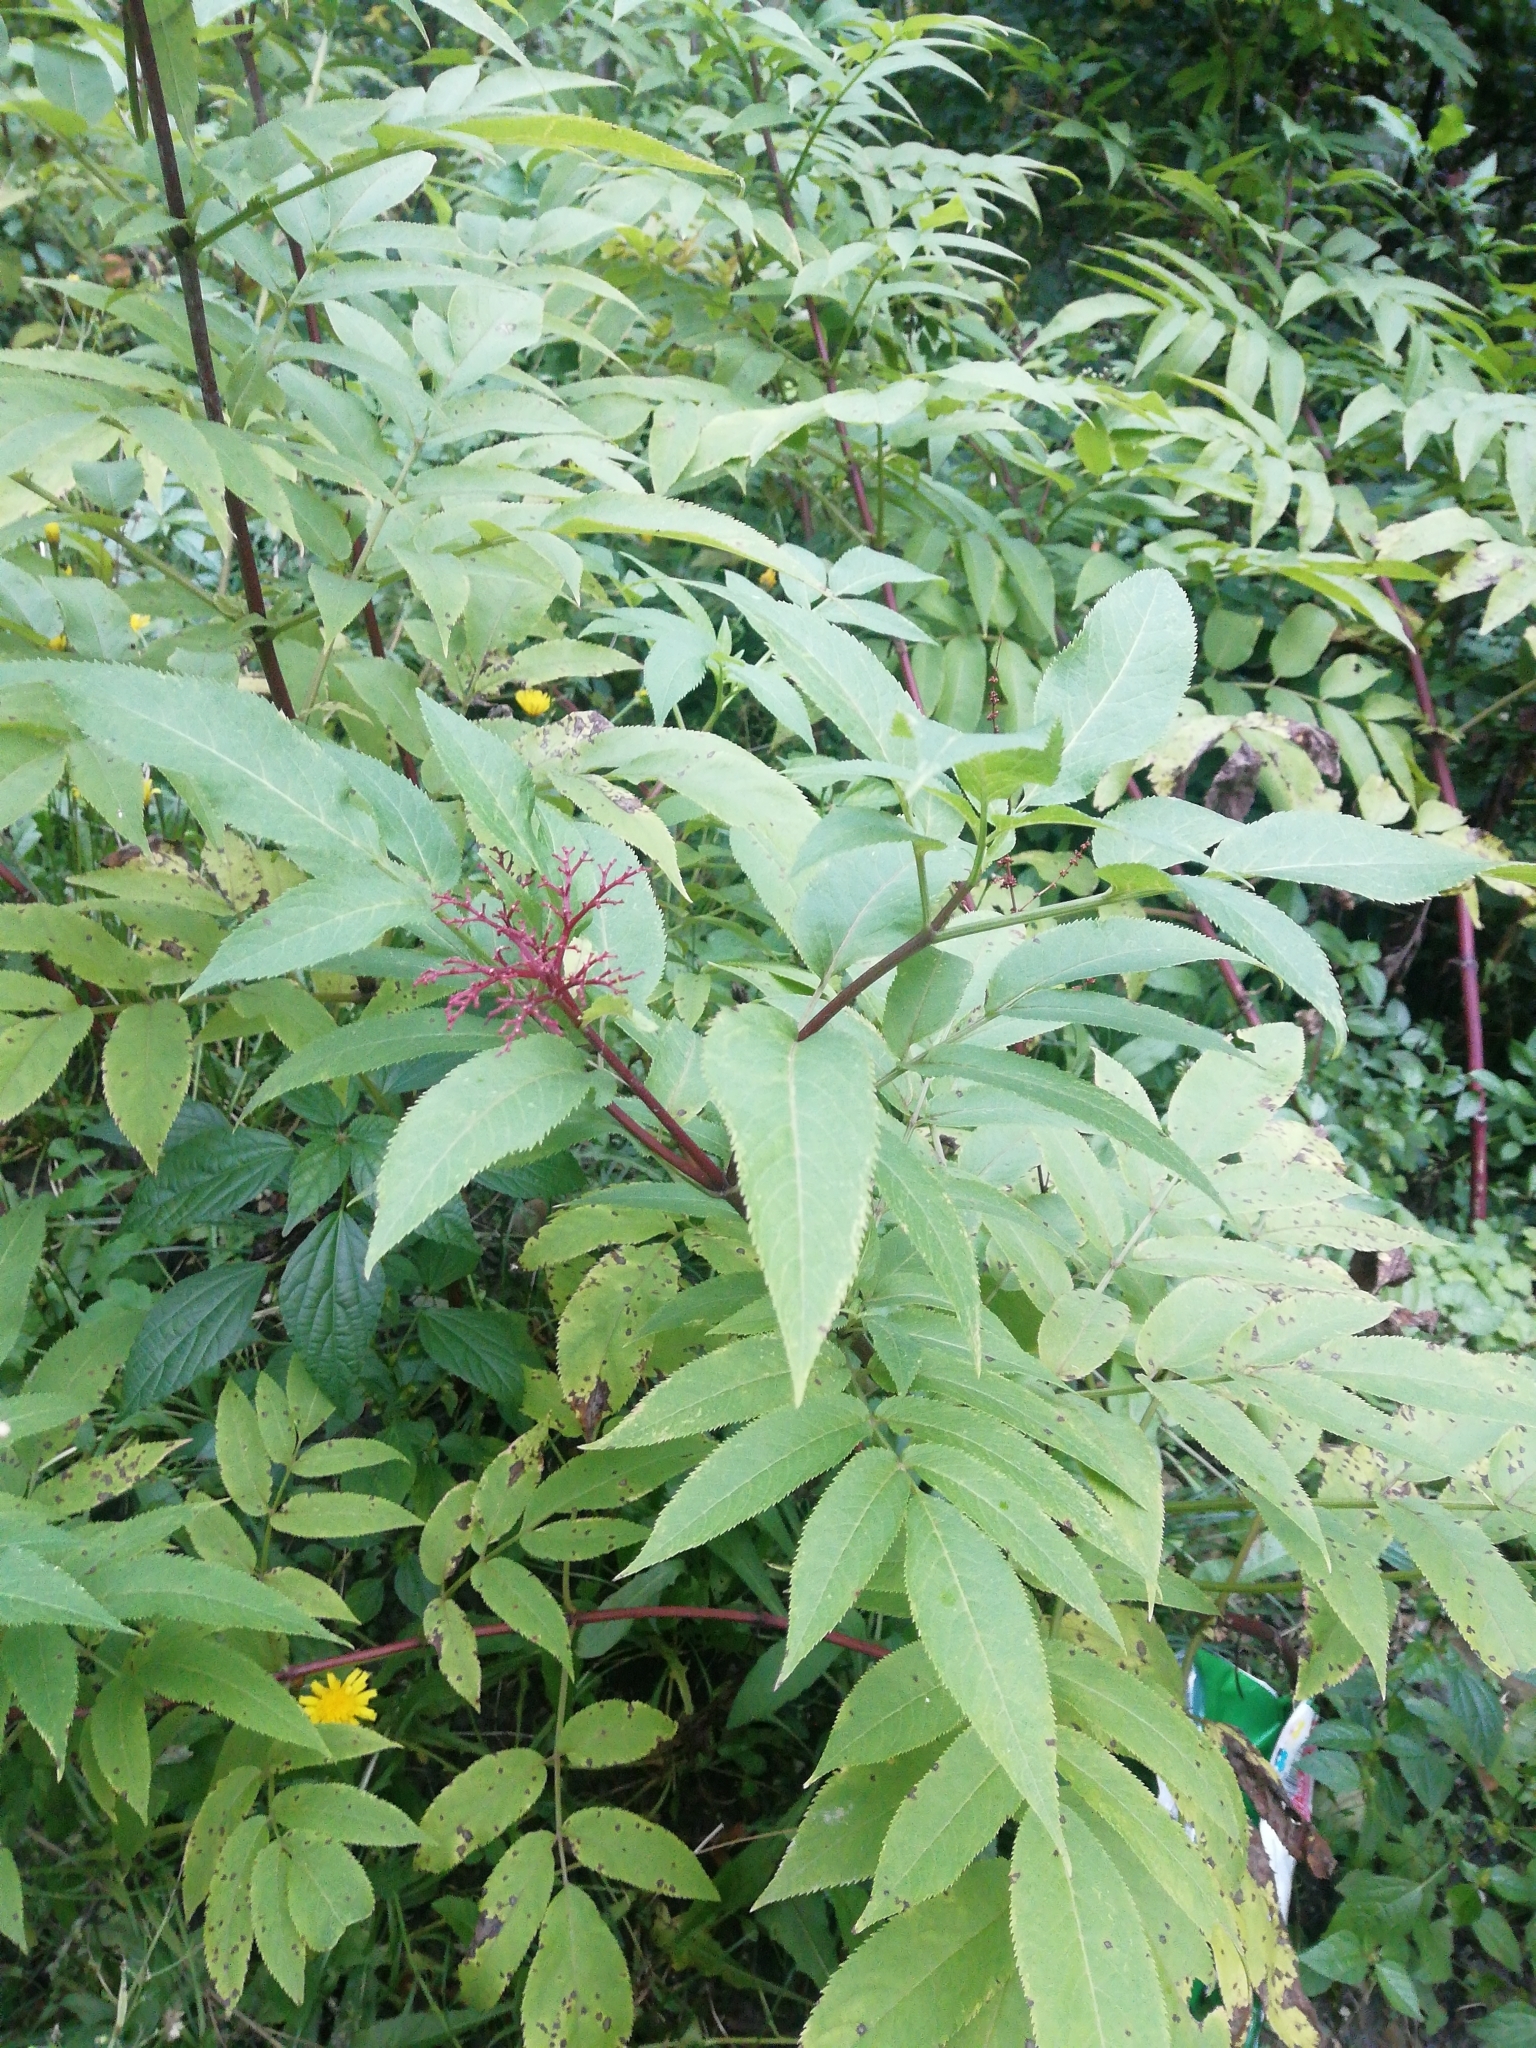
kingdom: Plantae
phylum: Tracheophyta
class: Magnoliopsida
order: Dipsacales
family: Viburnaceae
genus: Sambucus
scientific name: Sambucus ebulus
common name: Dwarf elder
